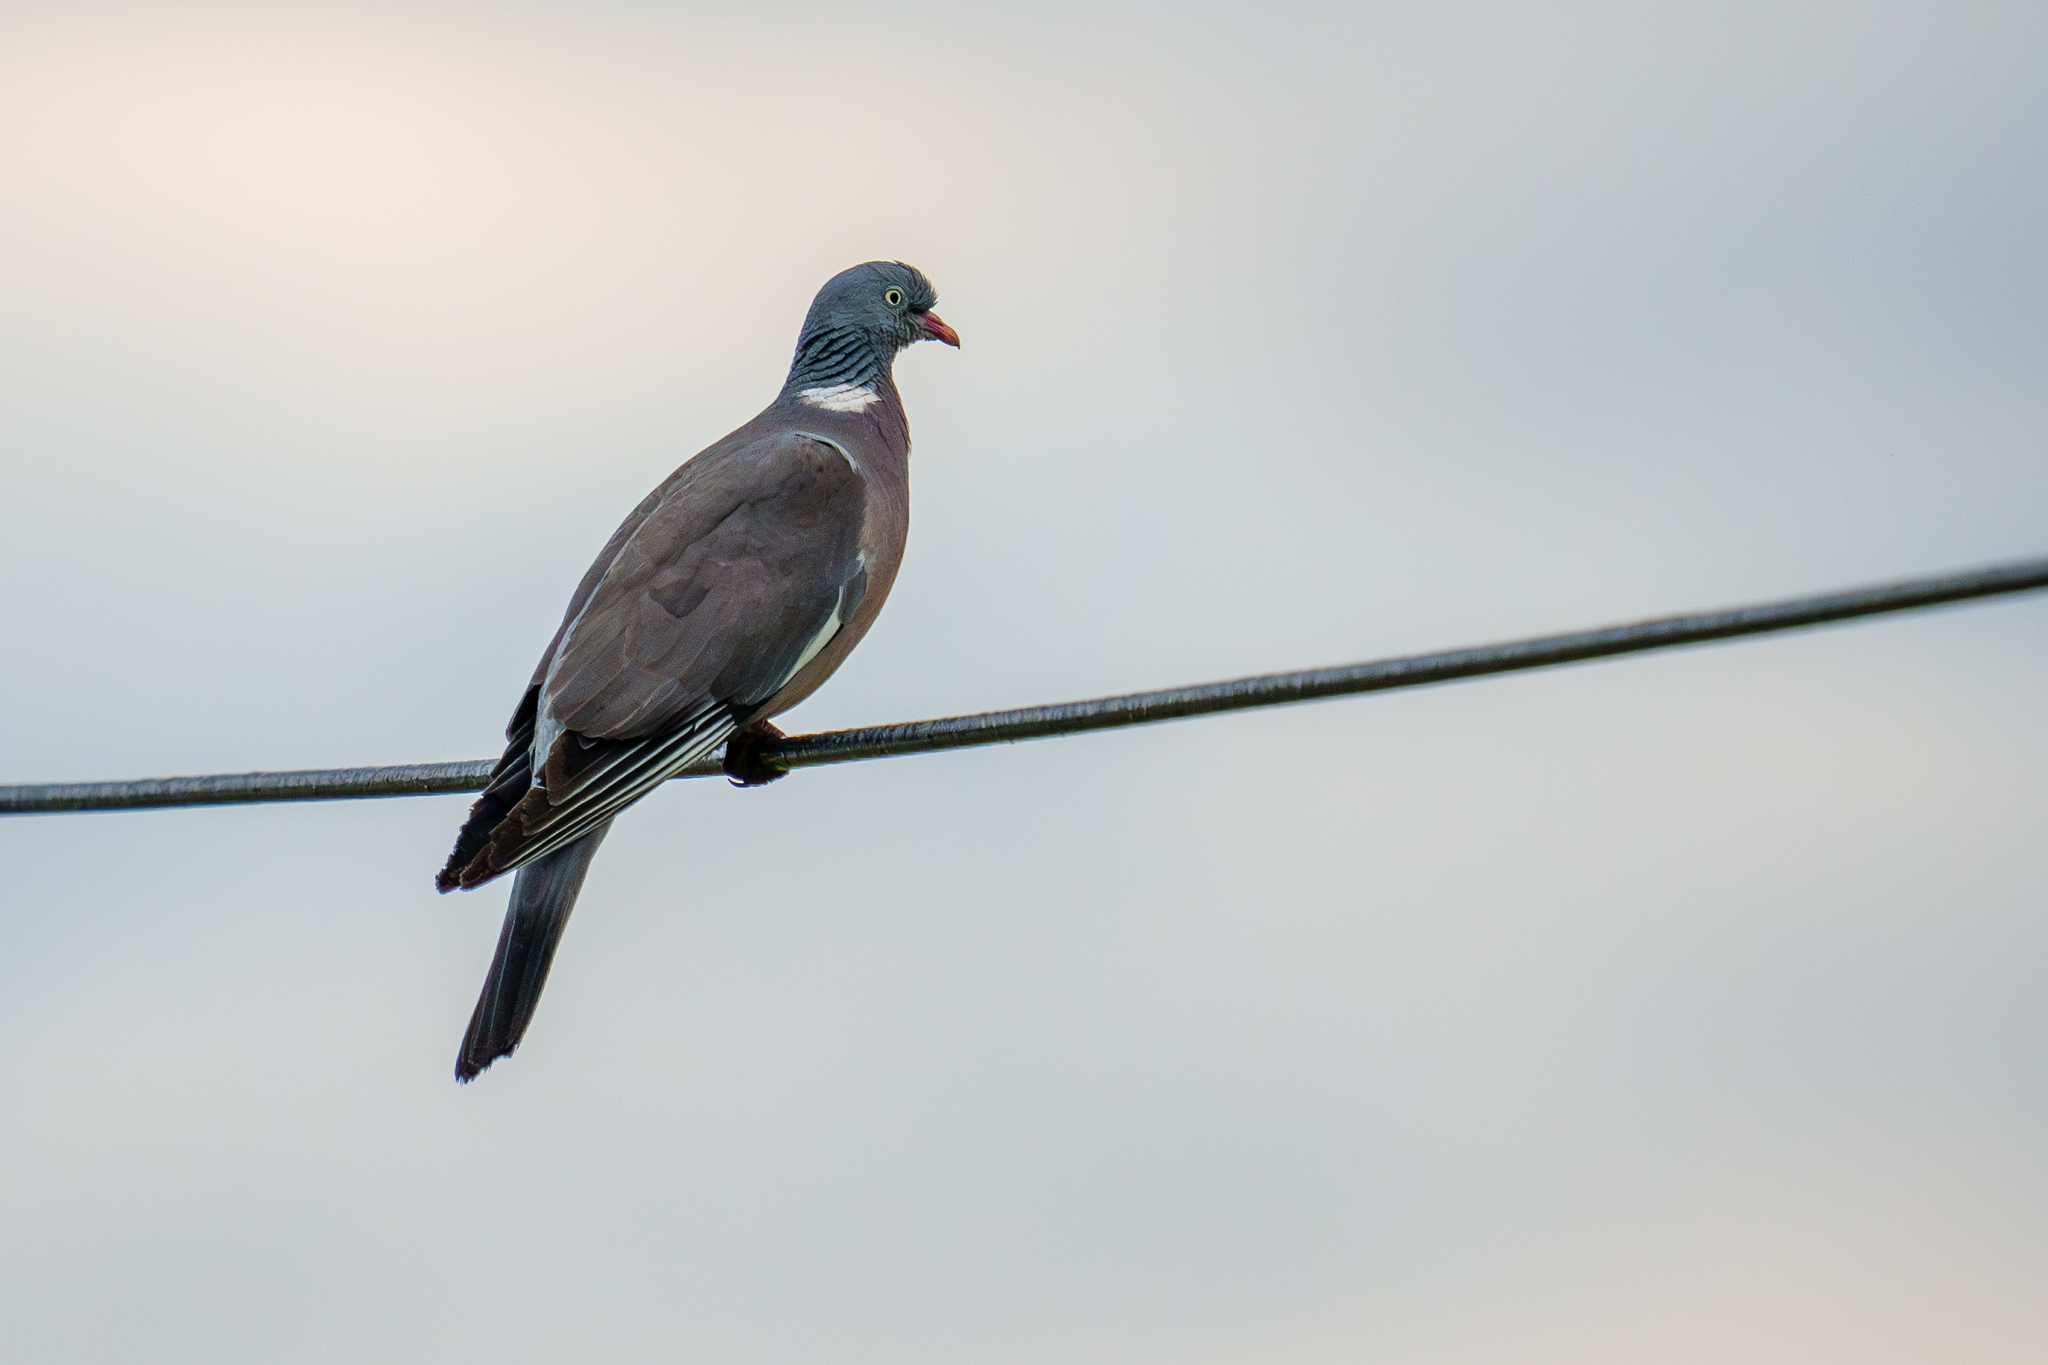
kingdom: Animalia
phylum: Chordata
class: Aves
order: Columbiformes
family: Columbidae
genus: Columba
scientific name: Columba palumbus
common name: Common wood pigeon
